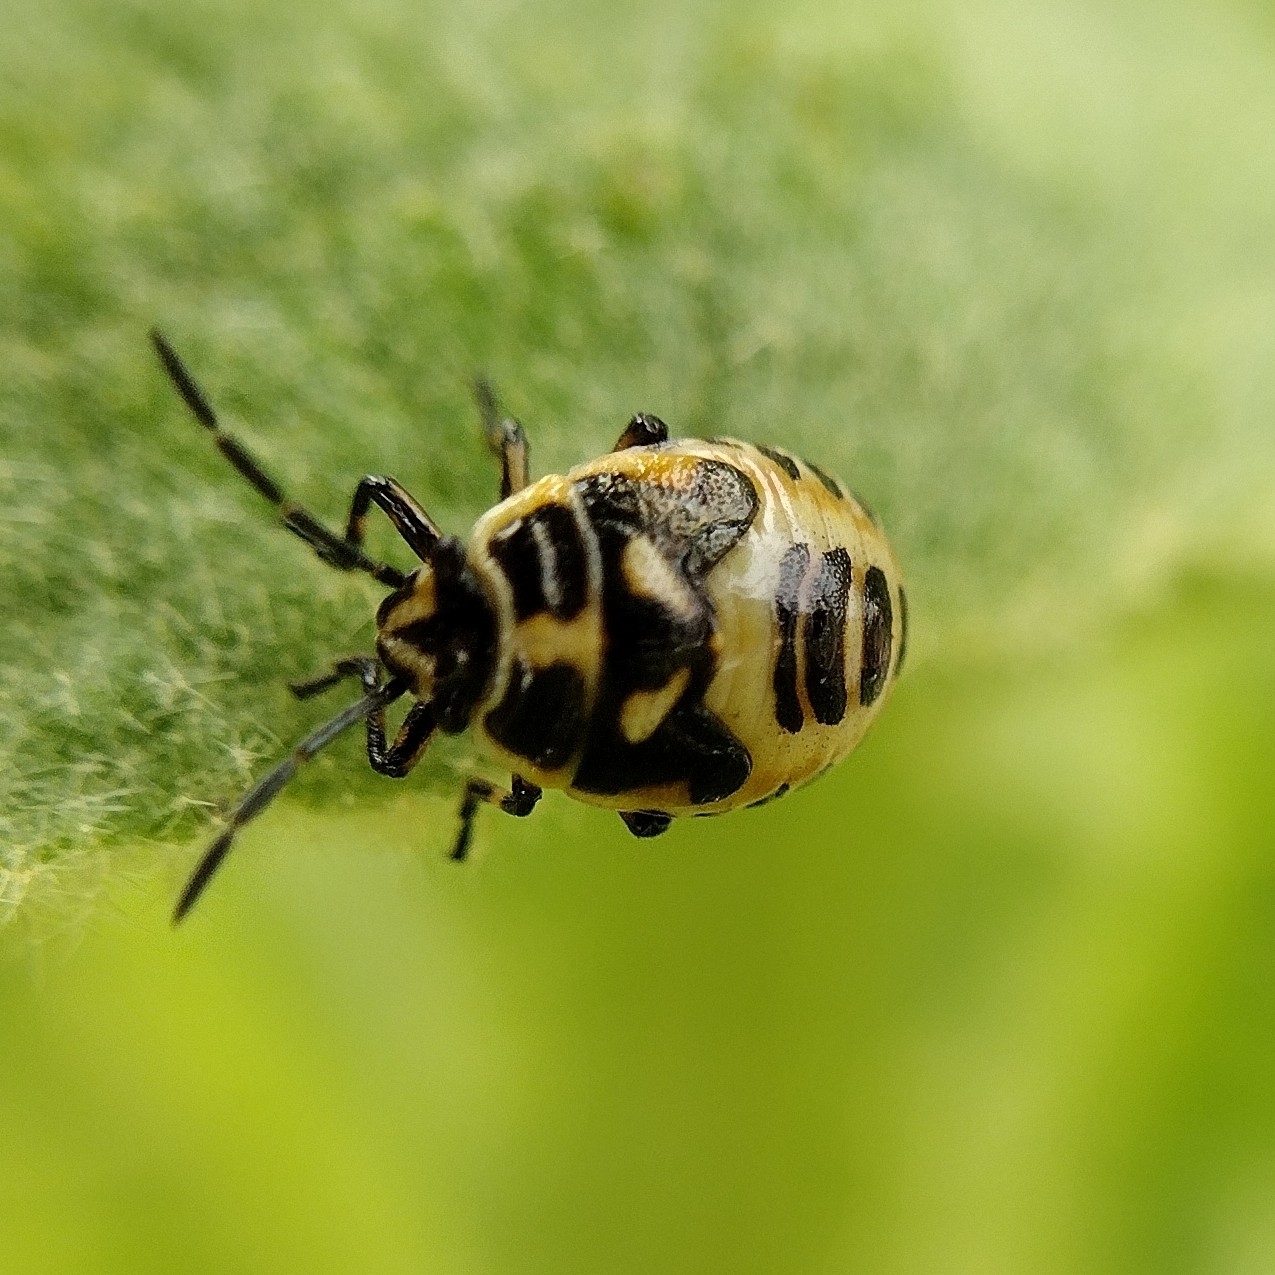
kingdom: Animalia
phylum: Arthropoda
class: Insecta
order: Hemiptera
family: Pentatomidae
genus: Eurydema
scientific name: Eurydema oleracea
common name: Cabbage bug
